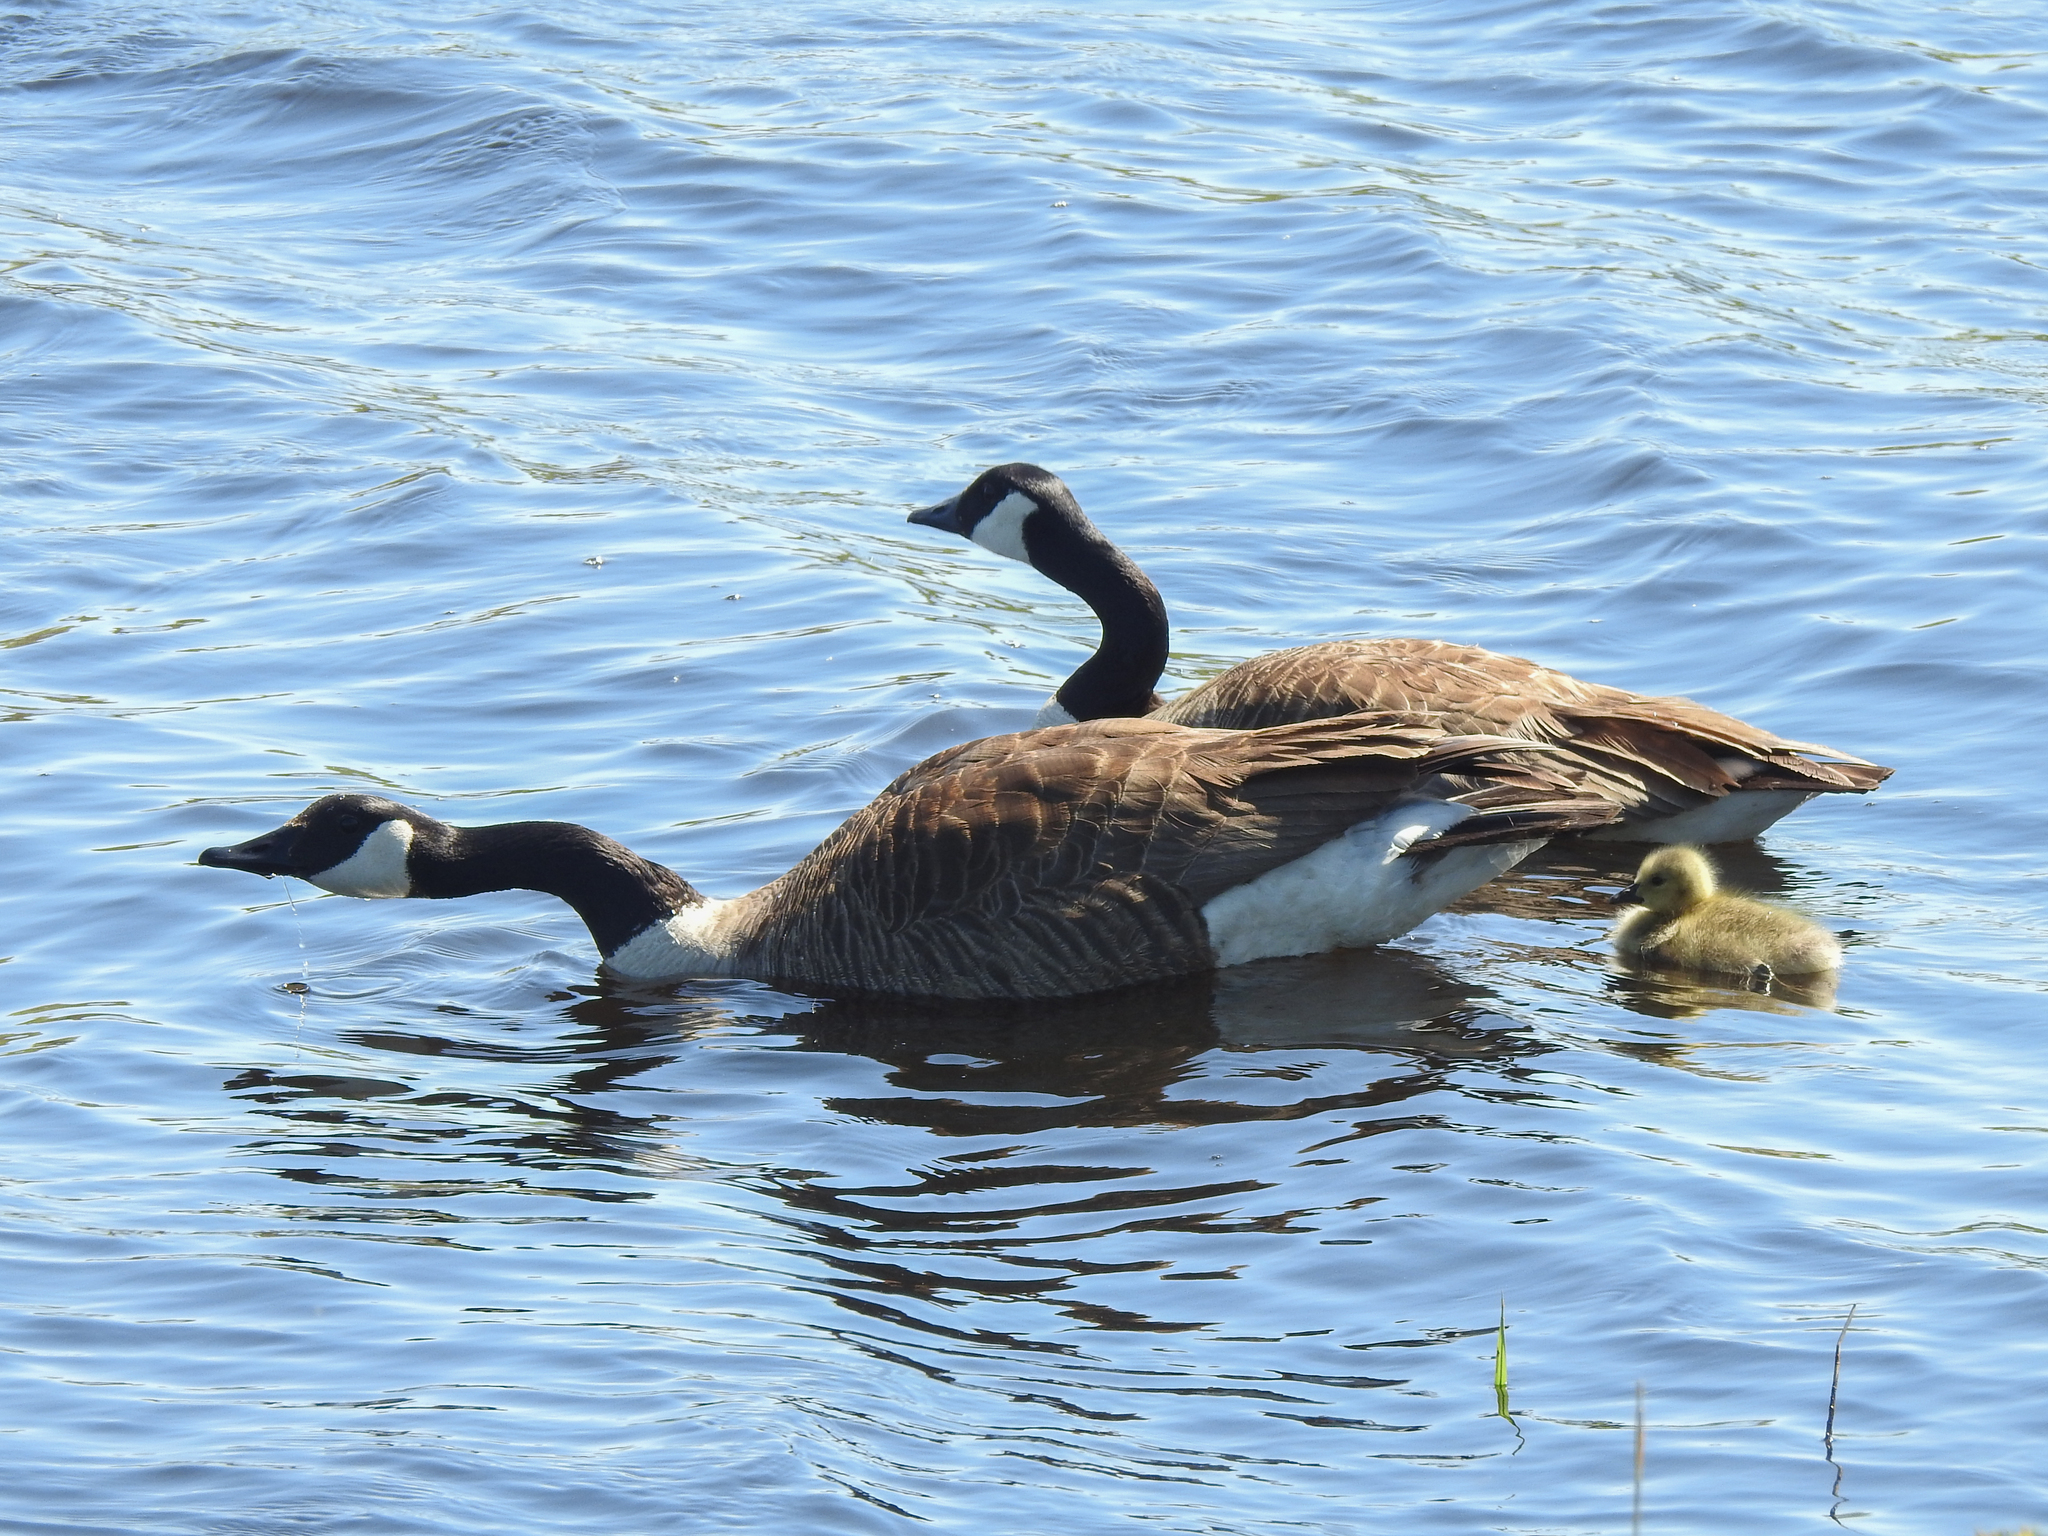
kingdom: Animalia
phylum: Chordata
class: Aves
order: Anseriformes
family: Anatidae
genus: Branta
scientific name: Branta canadensis
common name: Canada goose
